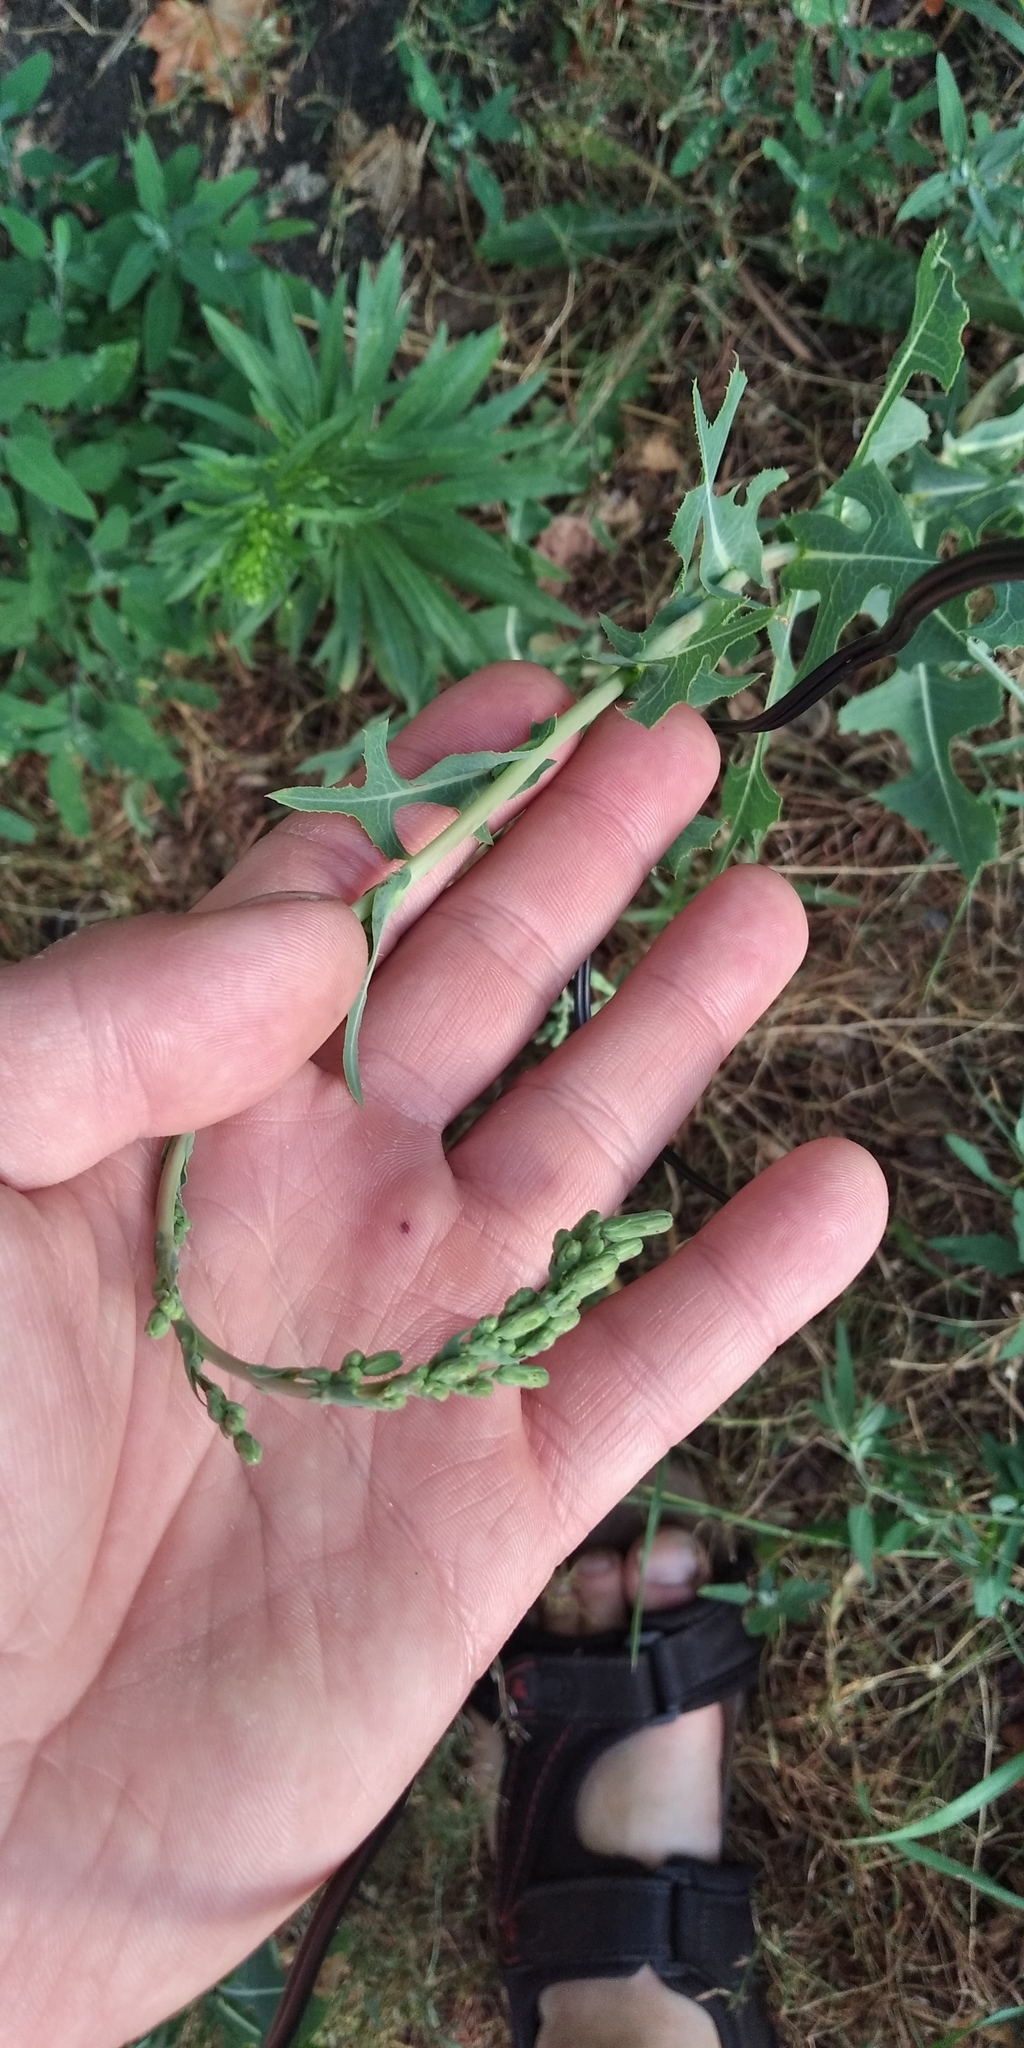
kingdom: Plantae
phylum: Tracheophyta
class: Magnoliopsida
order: Asterales
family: Asteraceae
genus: Lactuca
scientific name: Lactuca serriola
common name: Prickly lettuce
